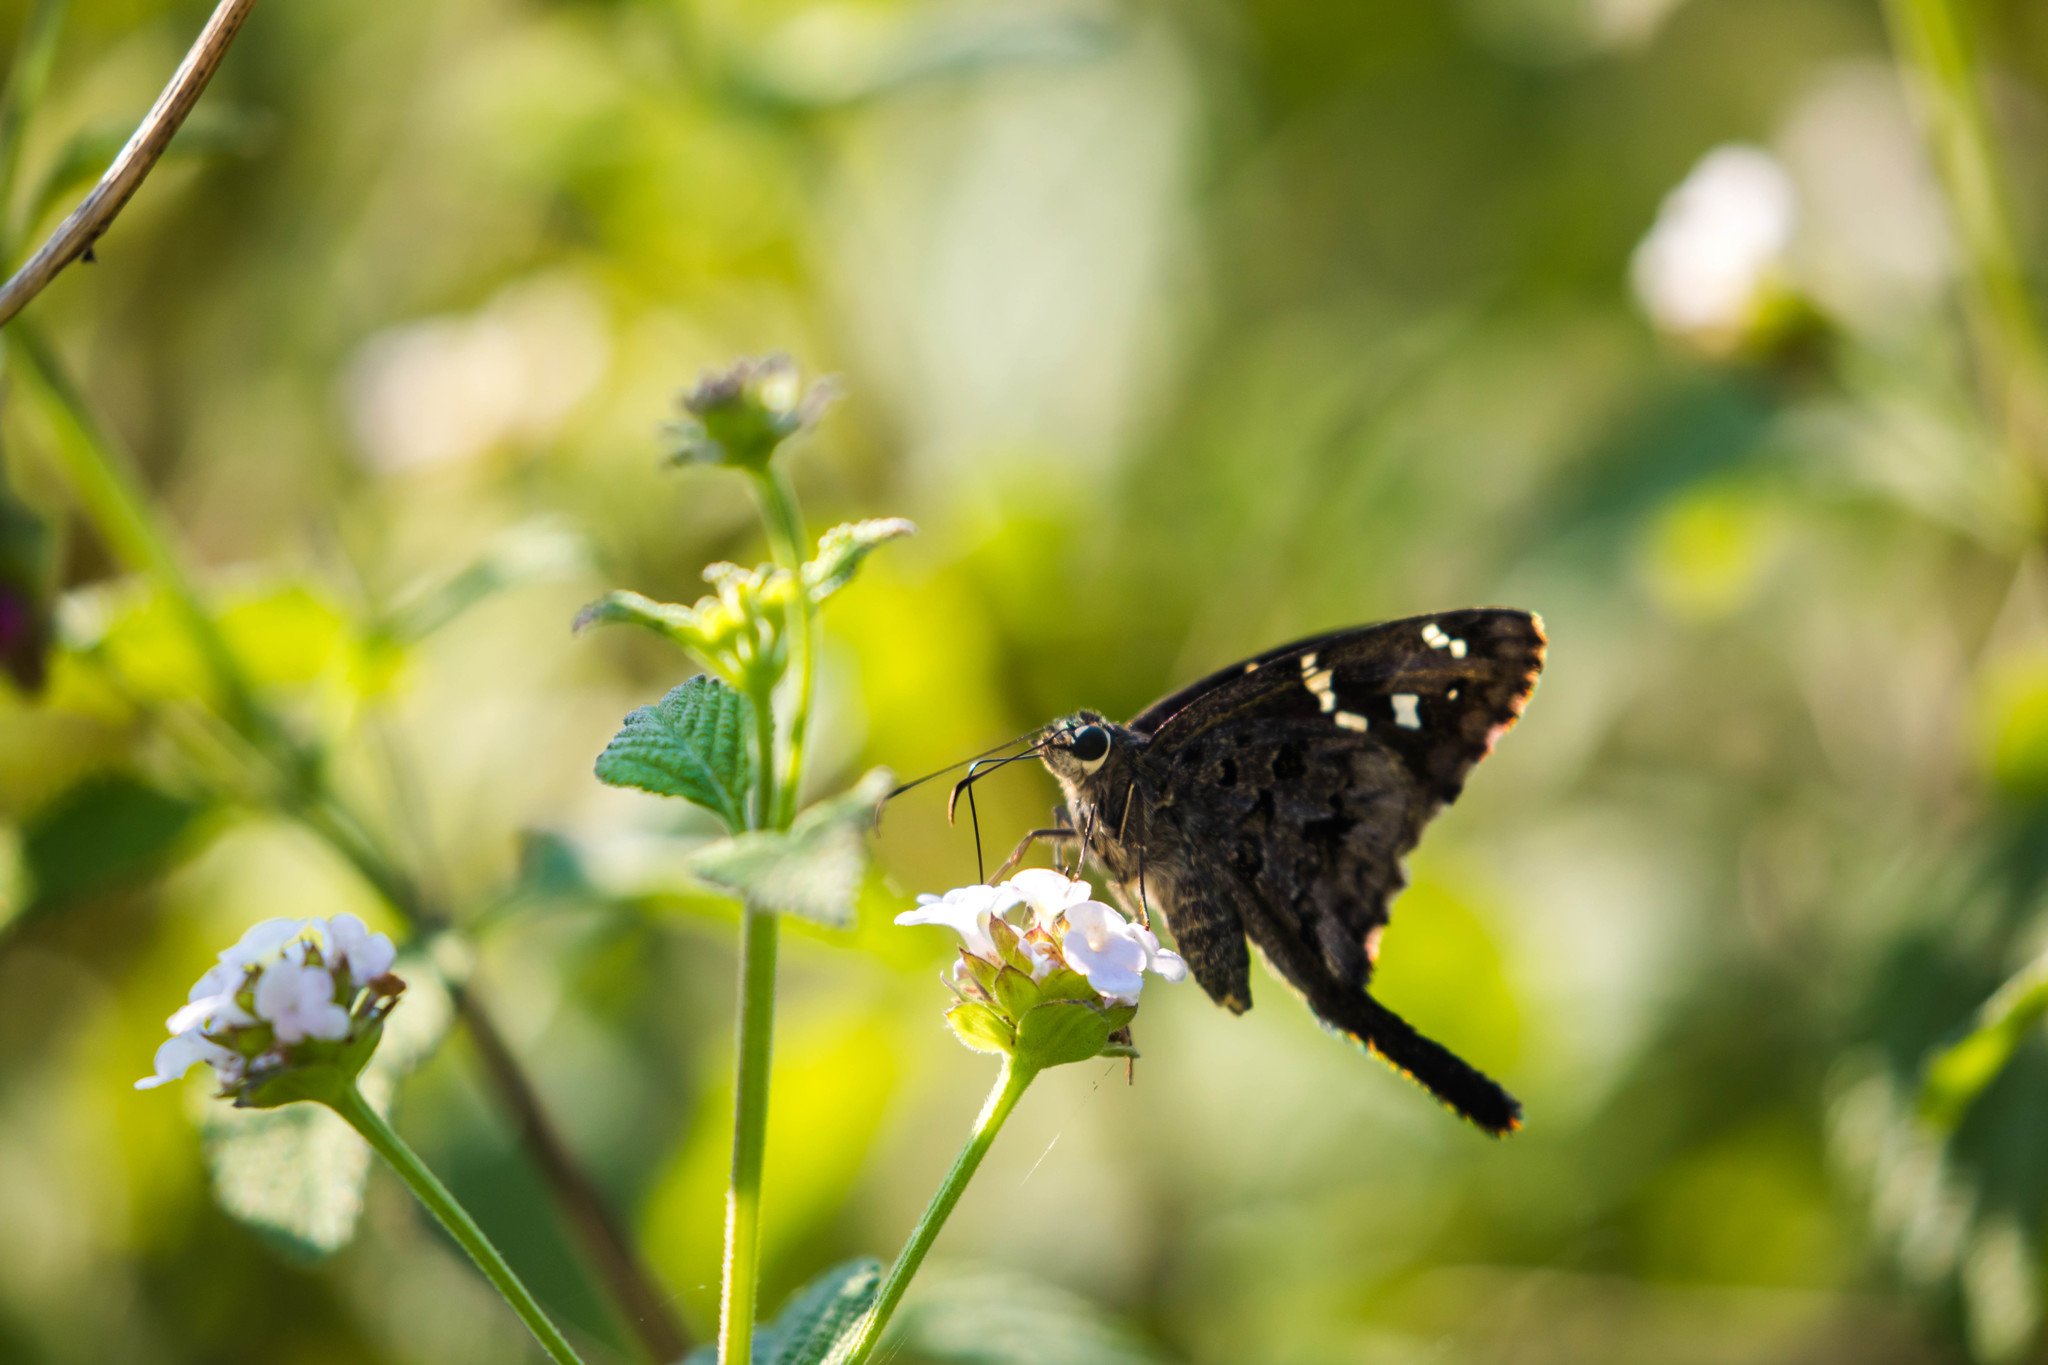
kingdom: Animalia
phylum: Arthropoda
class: Insecta
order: Lepidoptera
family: Hesperiidae
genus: Thorybes
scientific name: Thorybes
